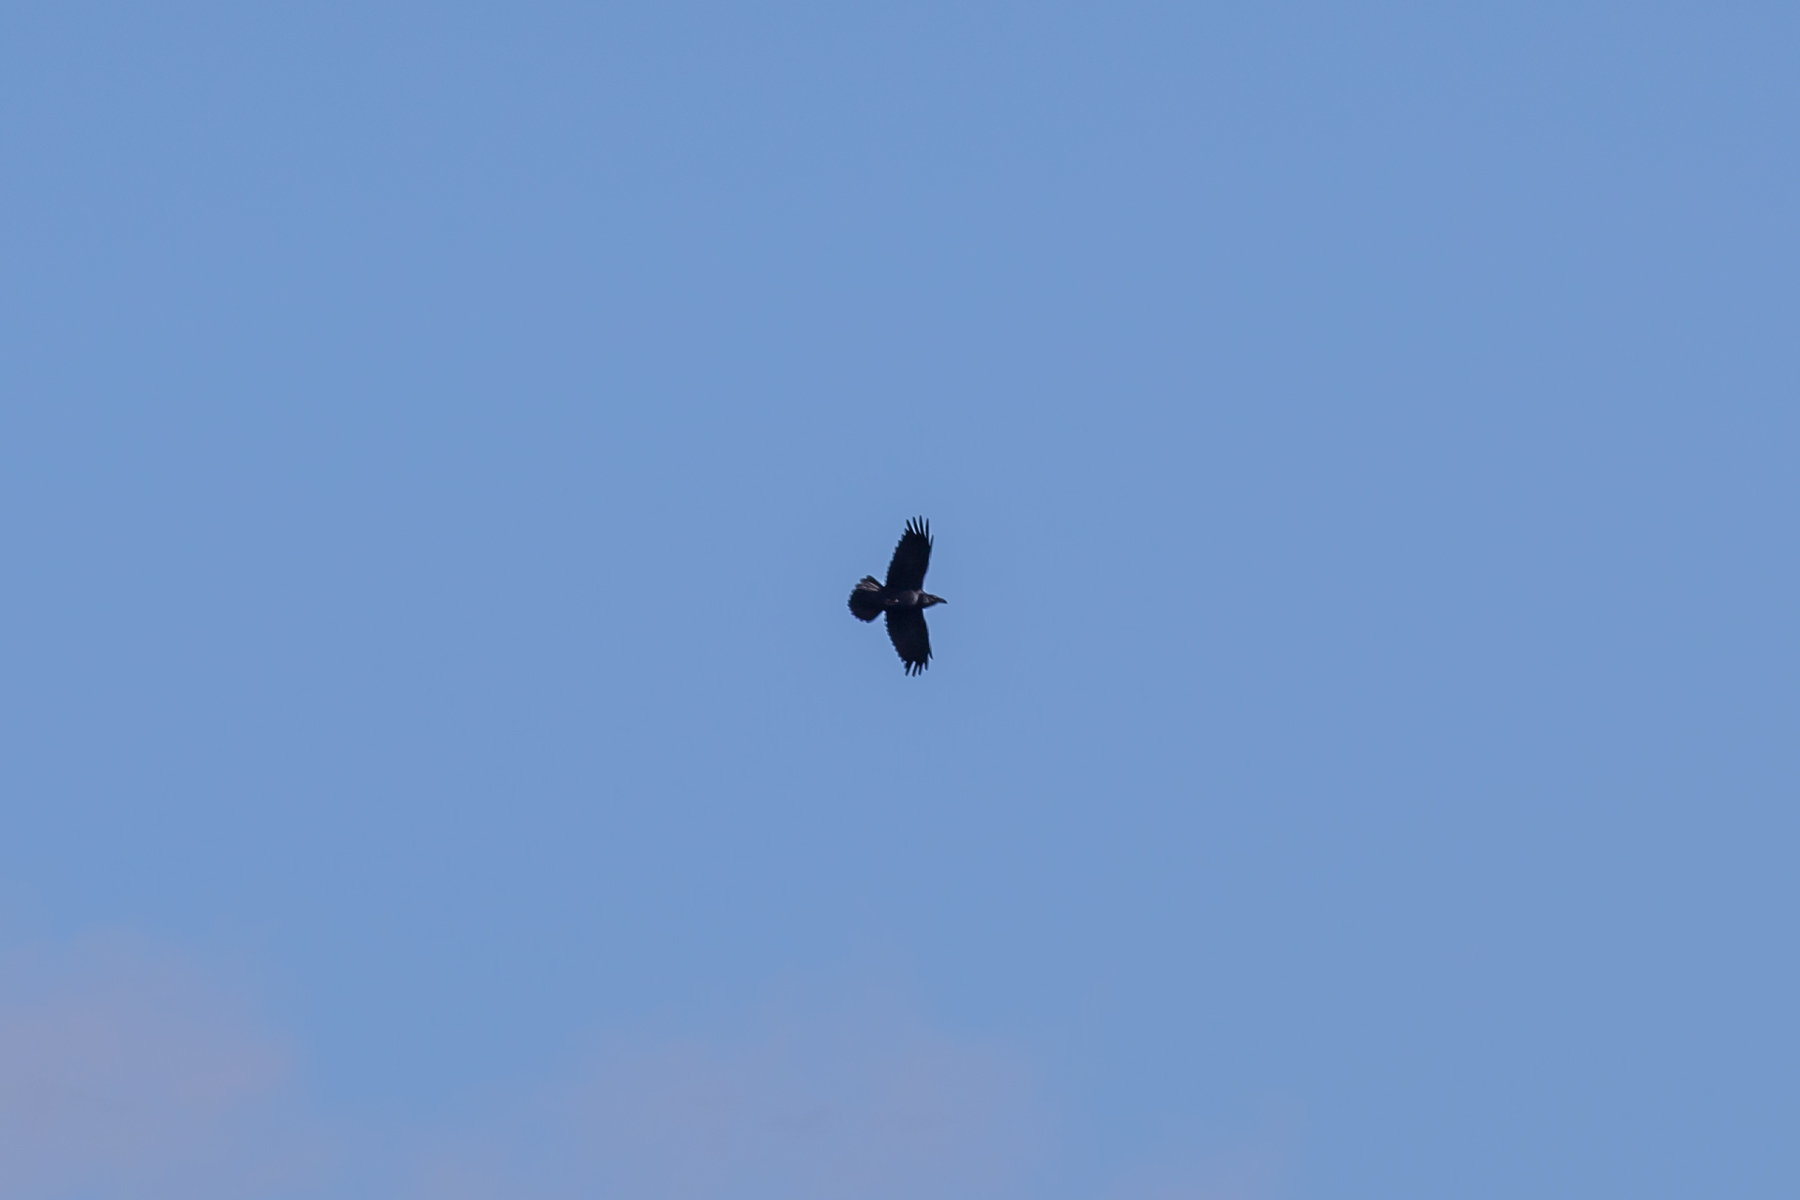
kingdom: Animalia
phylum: Chordata
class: Aves
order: Passeriformes
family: Corvidae
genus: Corvus
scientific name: Corvus corax
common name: Common raven
